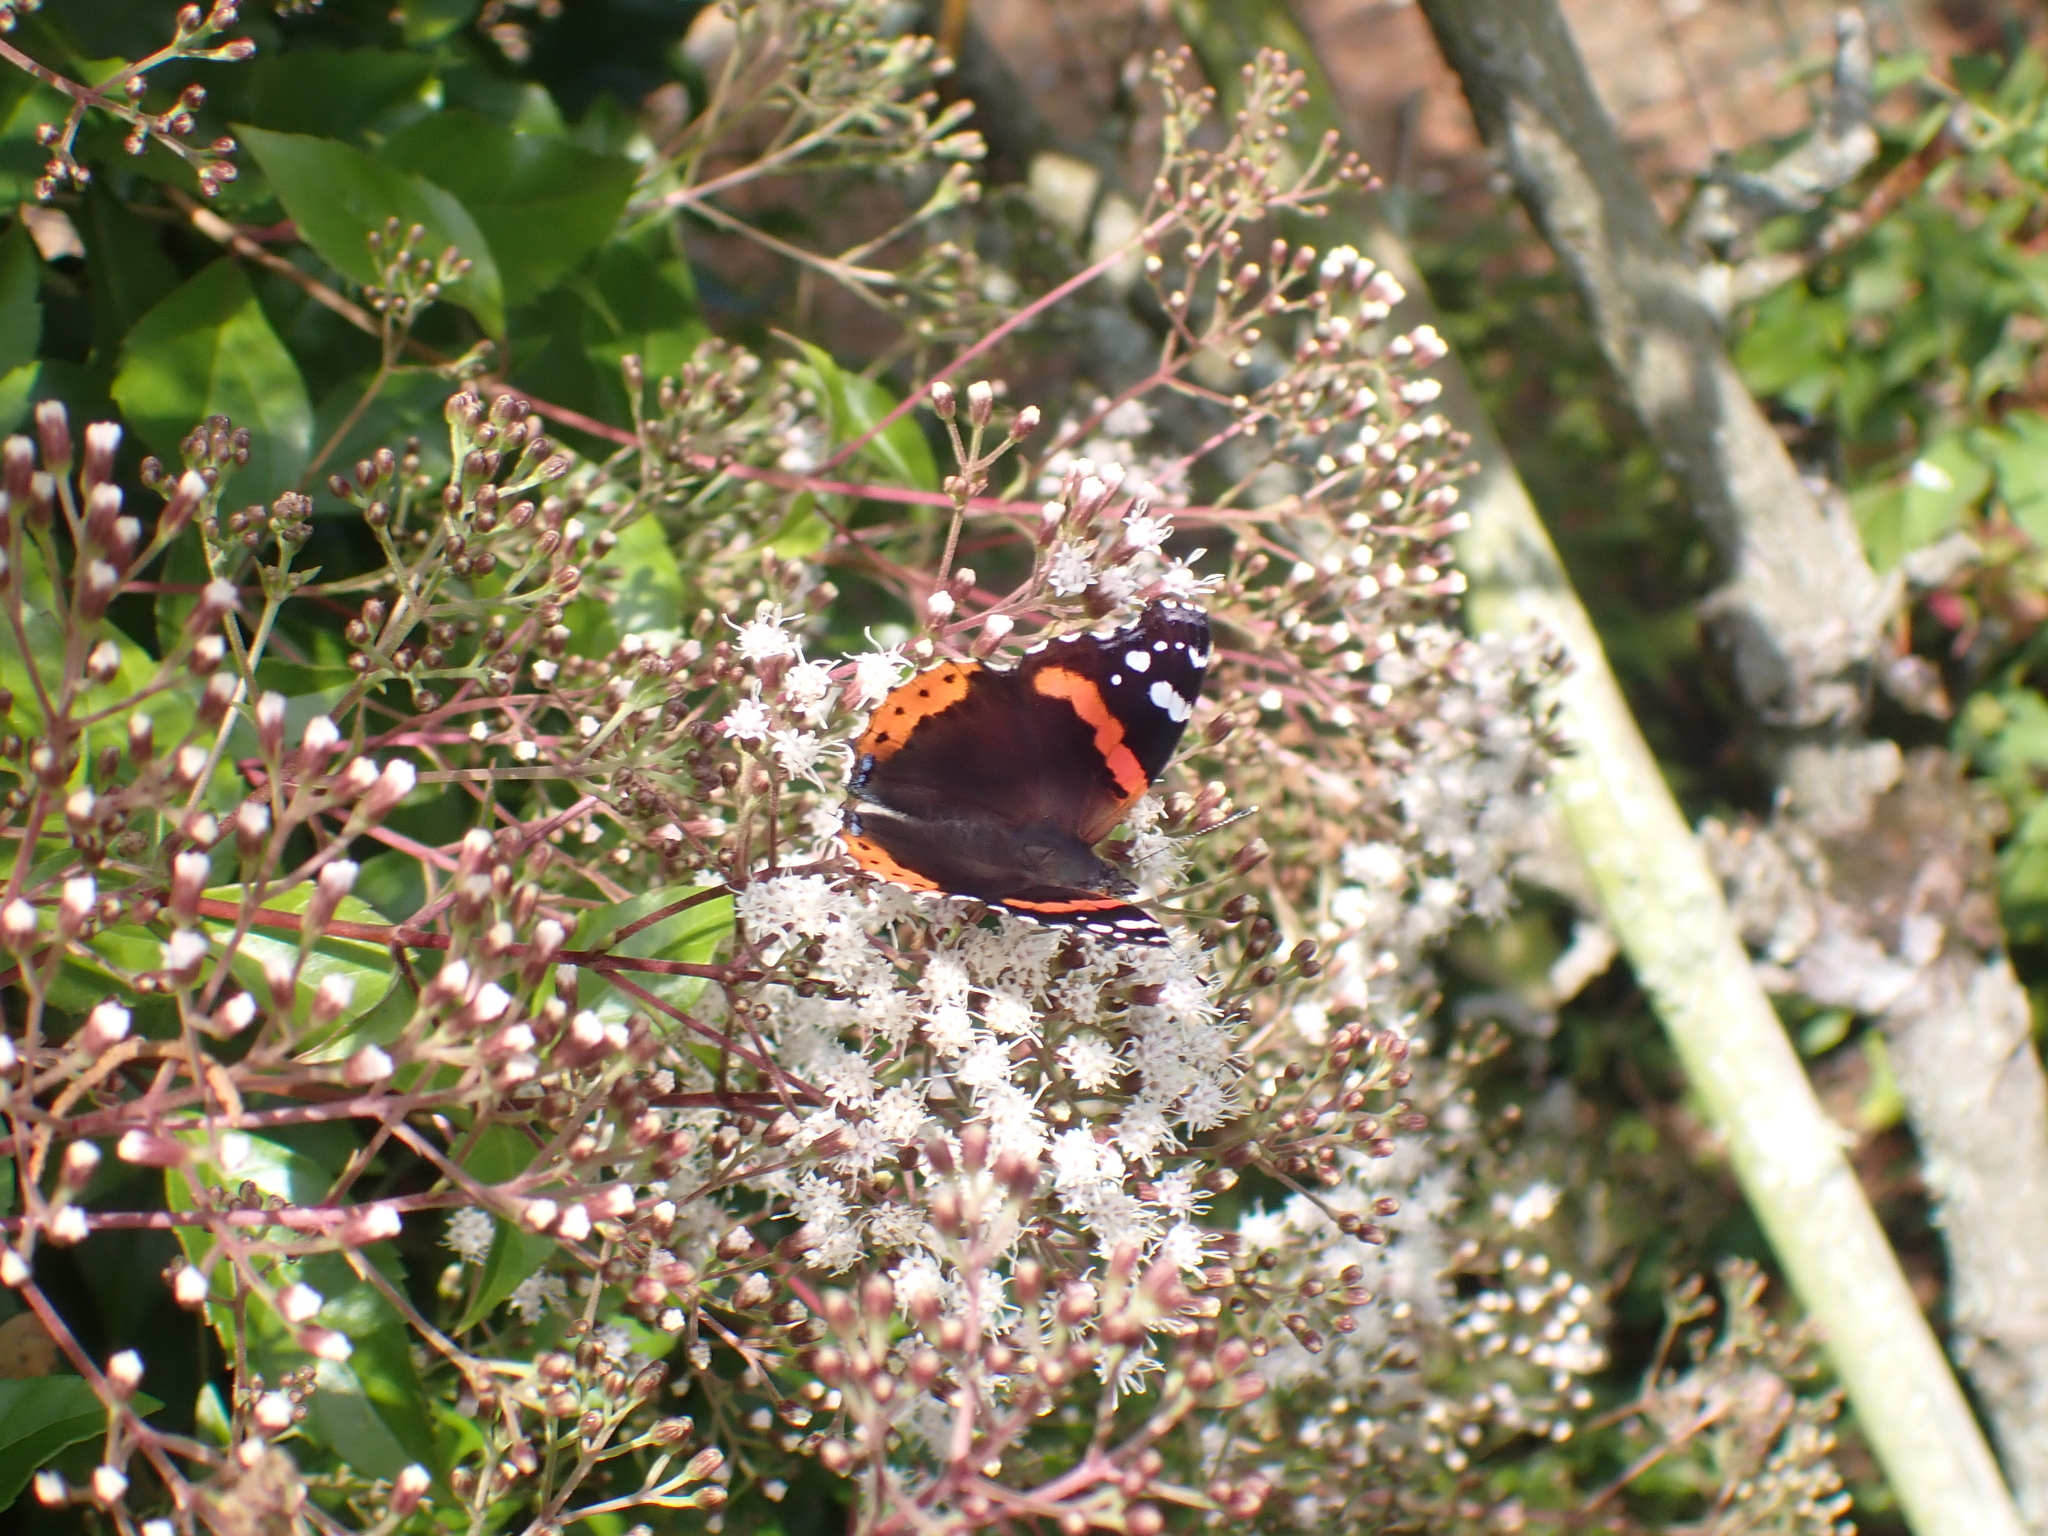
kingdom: Animalia
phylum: Arthropoda
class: Insecta
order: Lepidoptera
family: Nymphalidae
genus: Vanessa
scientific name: Vanessa atalanta
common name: Red admiral
